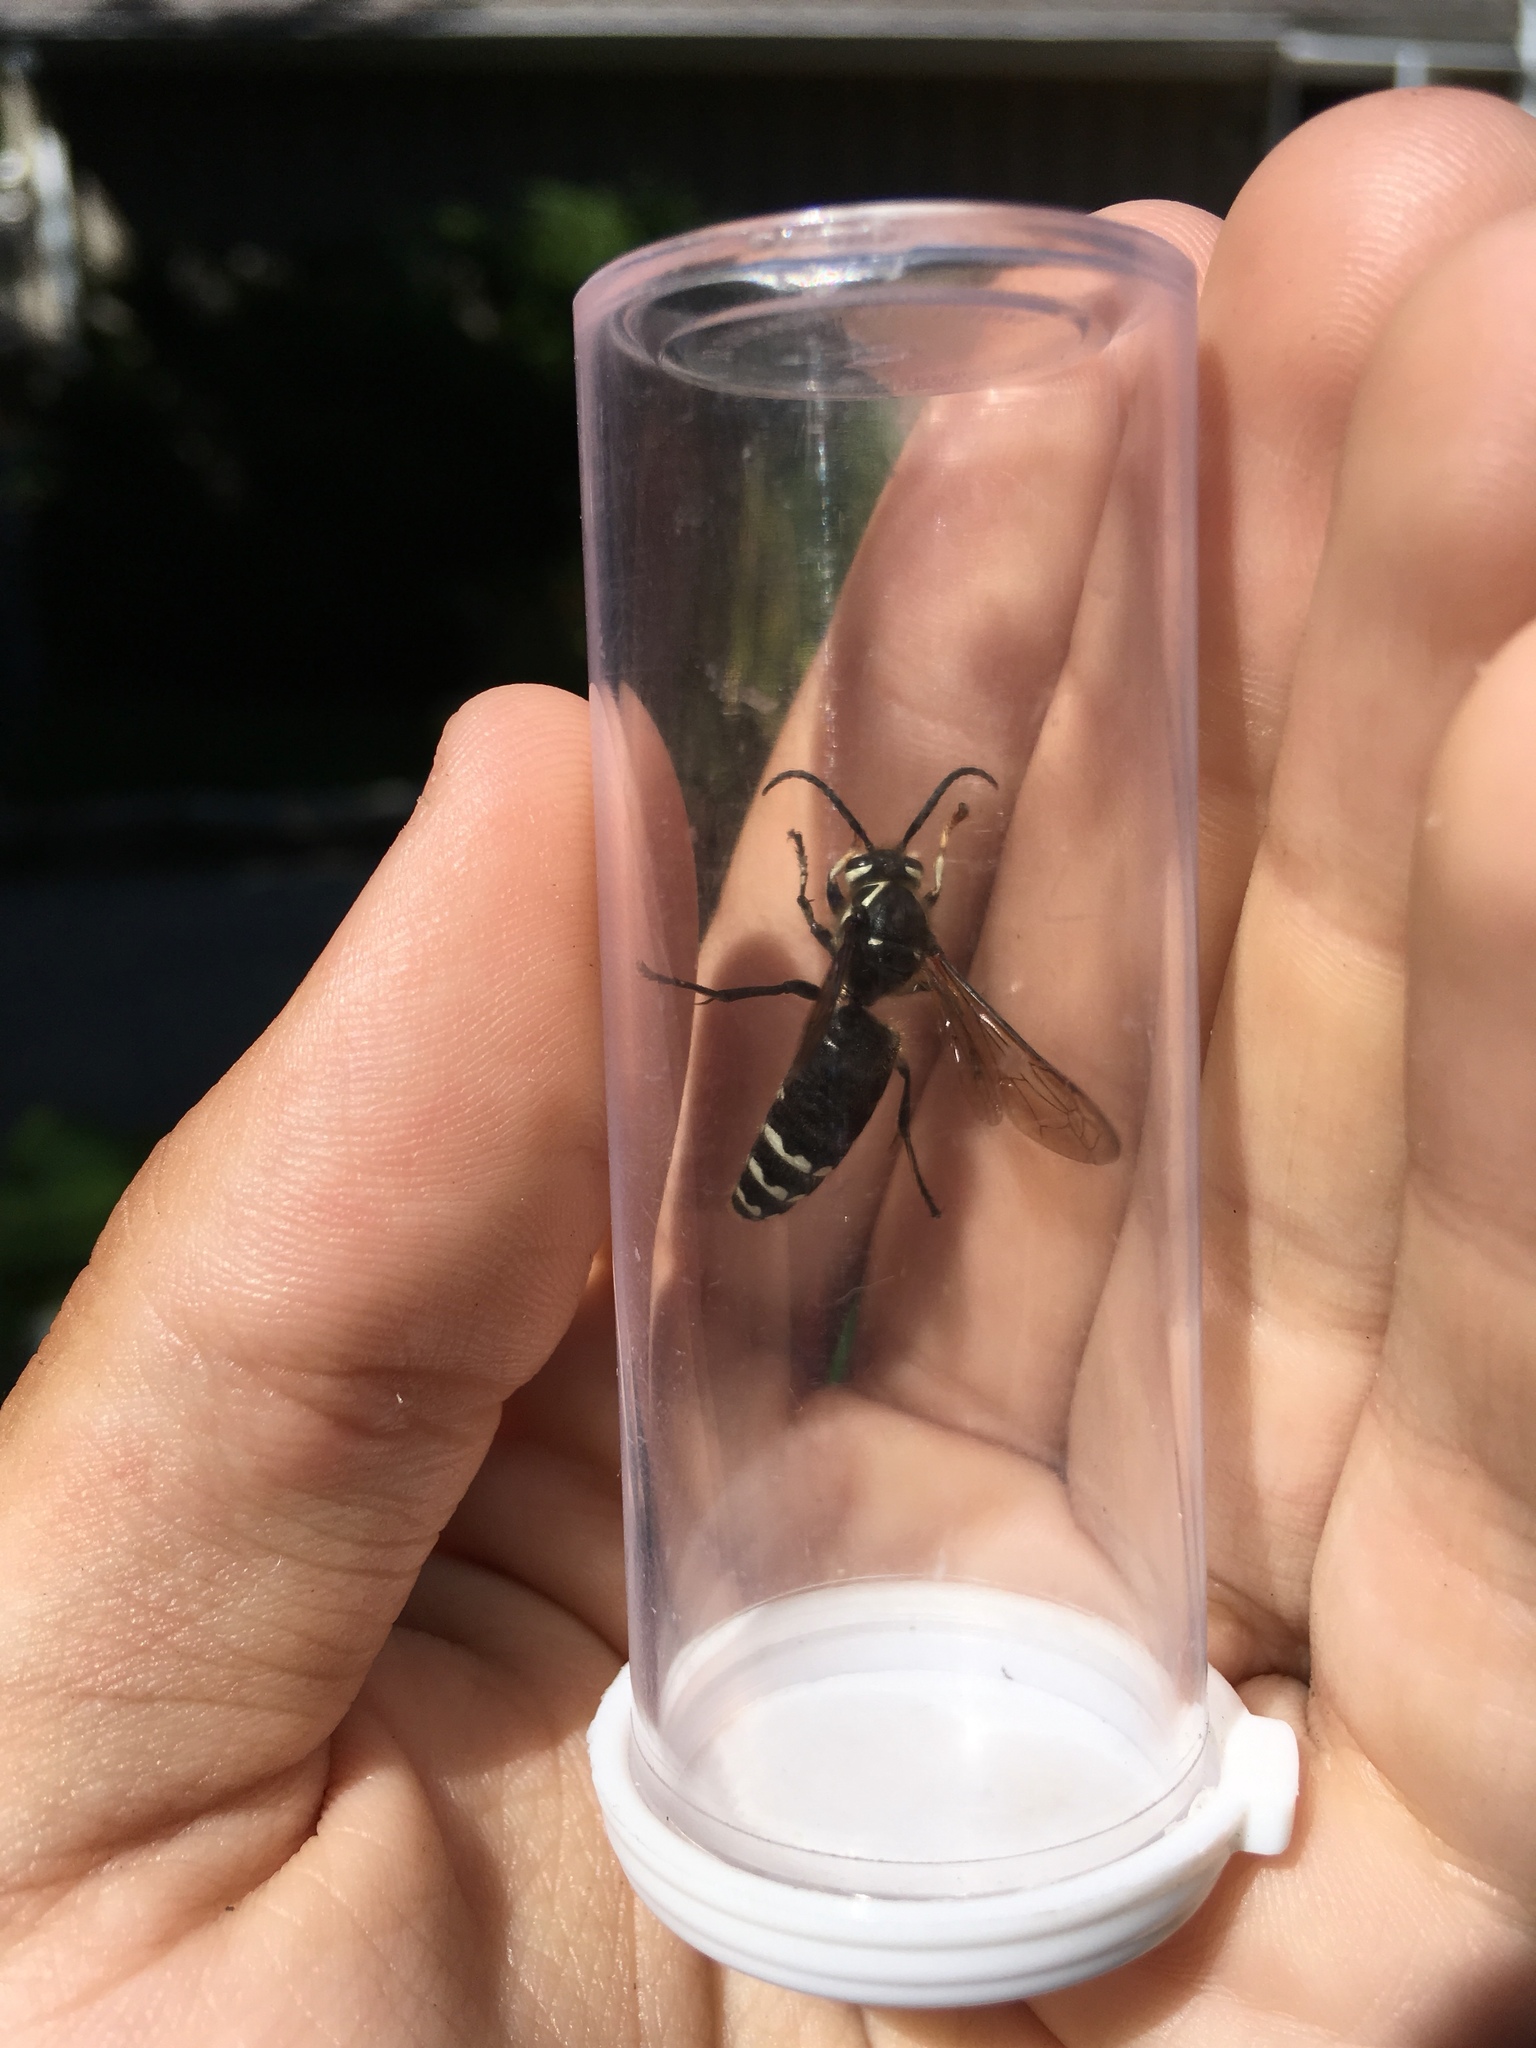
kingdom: Animalia
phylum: Arthropoda
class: Insecta
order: Hymenoptera
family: Vespidae
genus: Dolichovespula
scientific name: Dolichovespula maculata
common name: Bald-faced hornet
